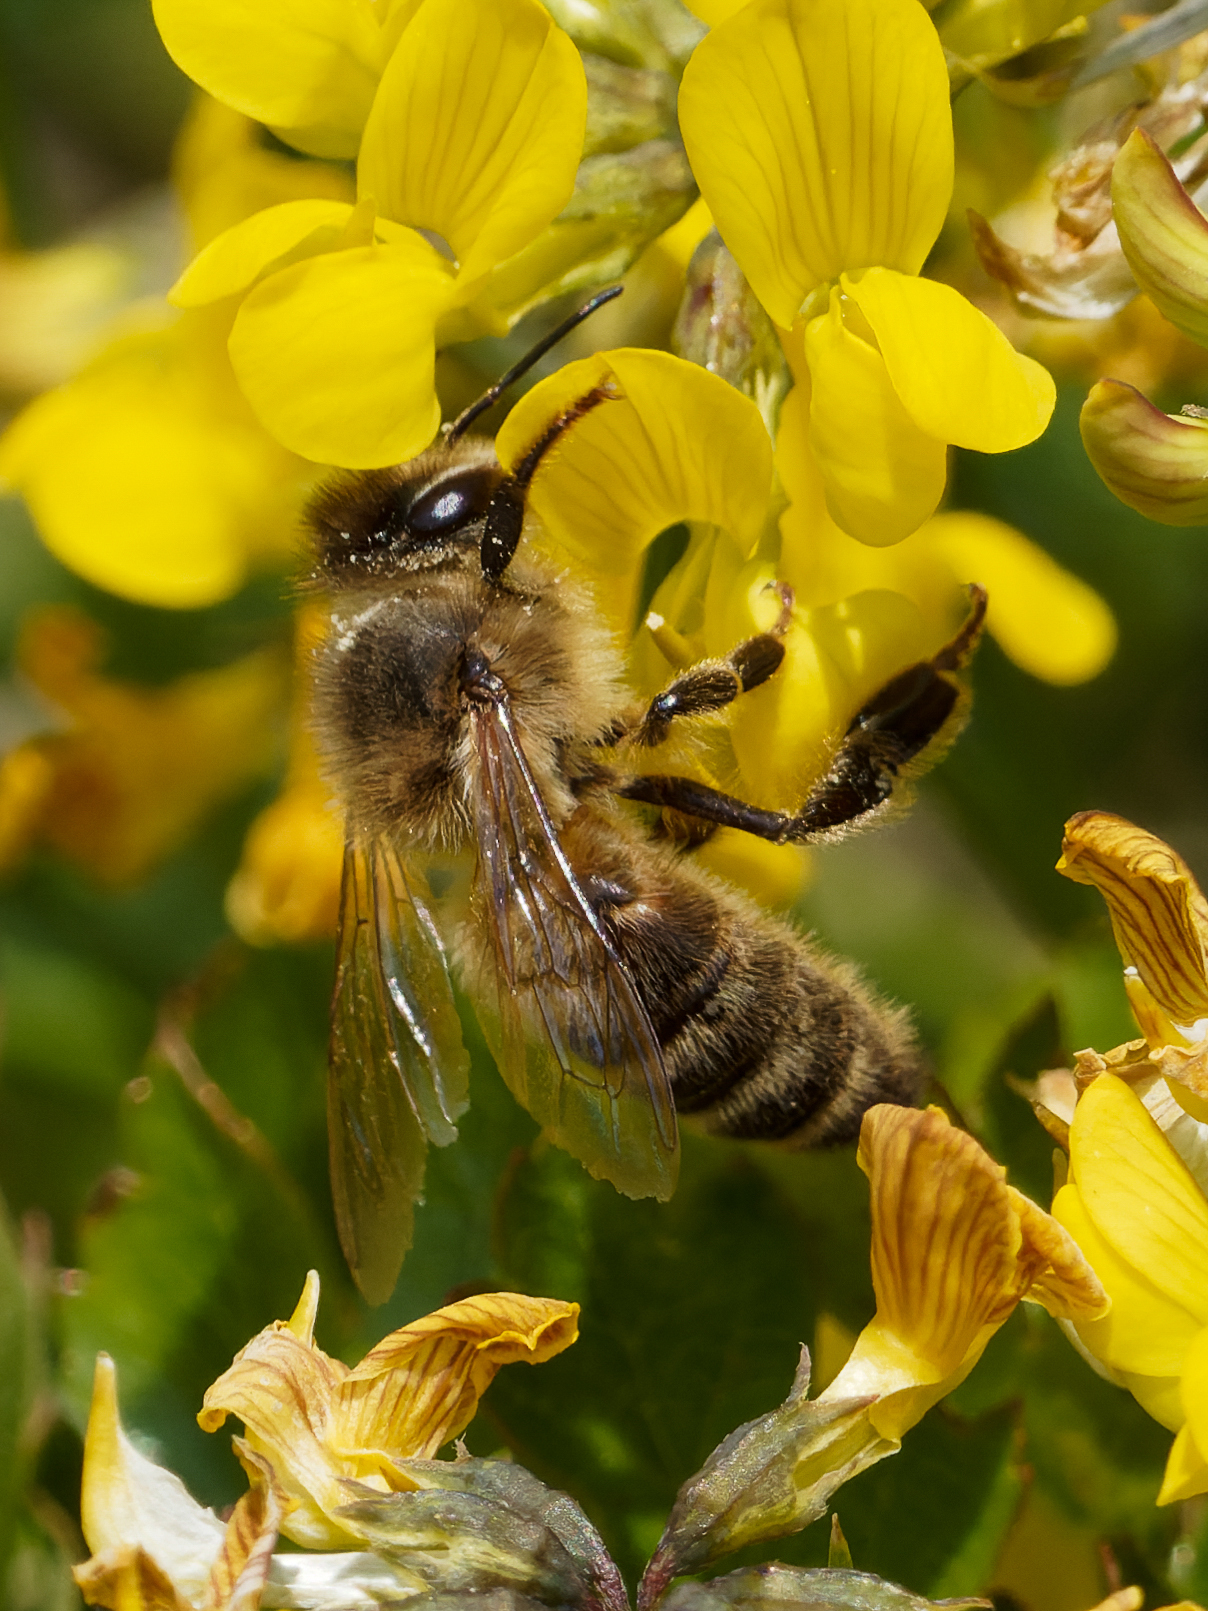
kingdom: Animalia
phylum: Arthropoda
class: Insecta
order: Hymenoptera
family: Apidae
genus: Apis
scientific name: Apis mellifera
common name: Honey bee
